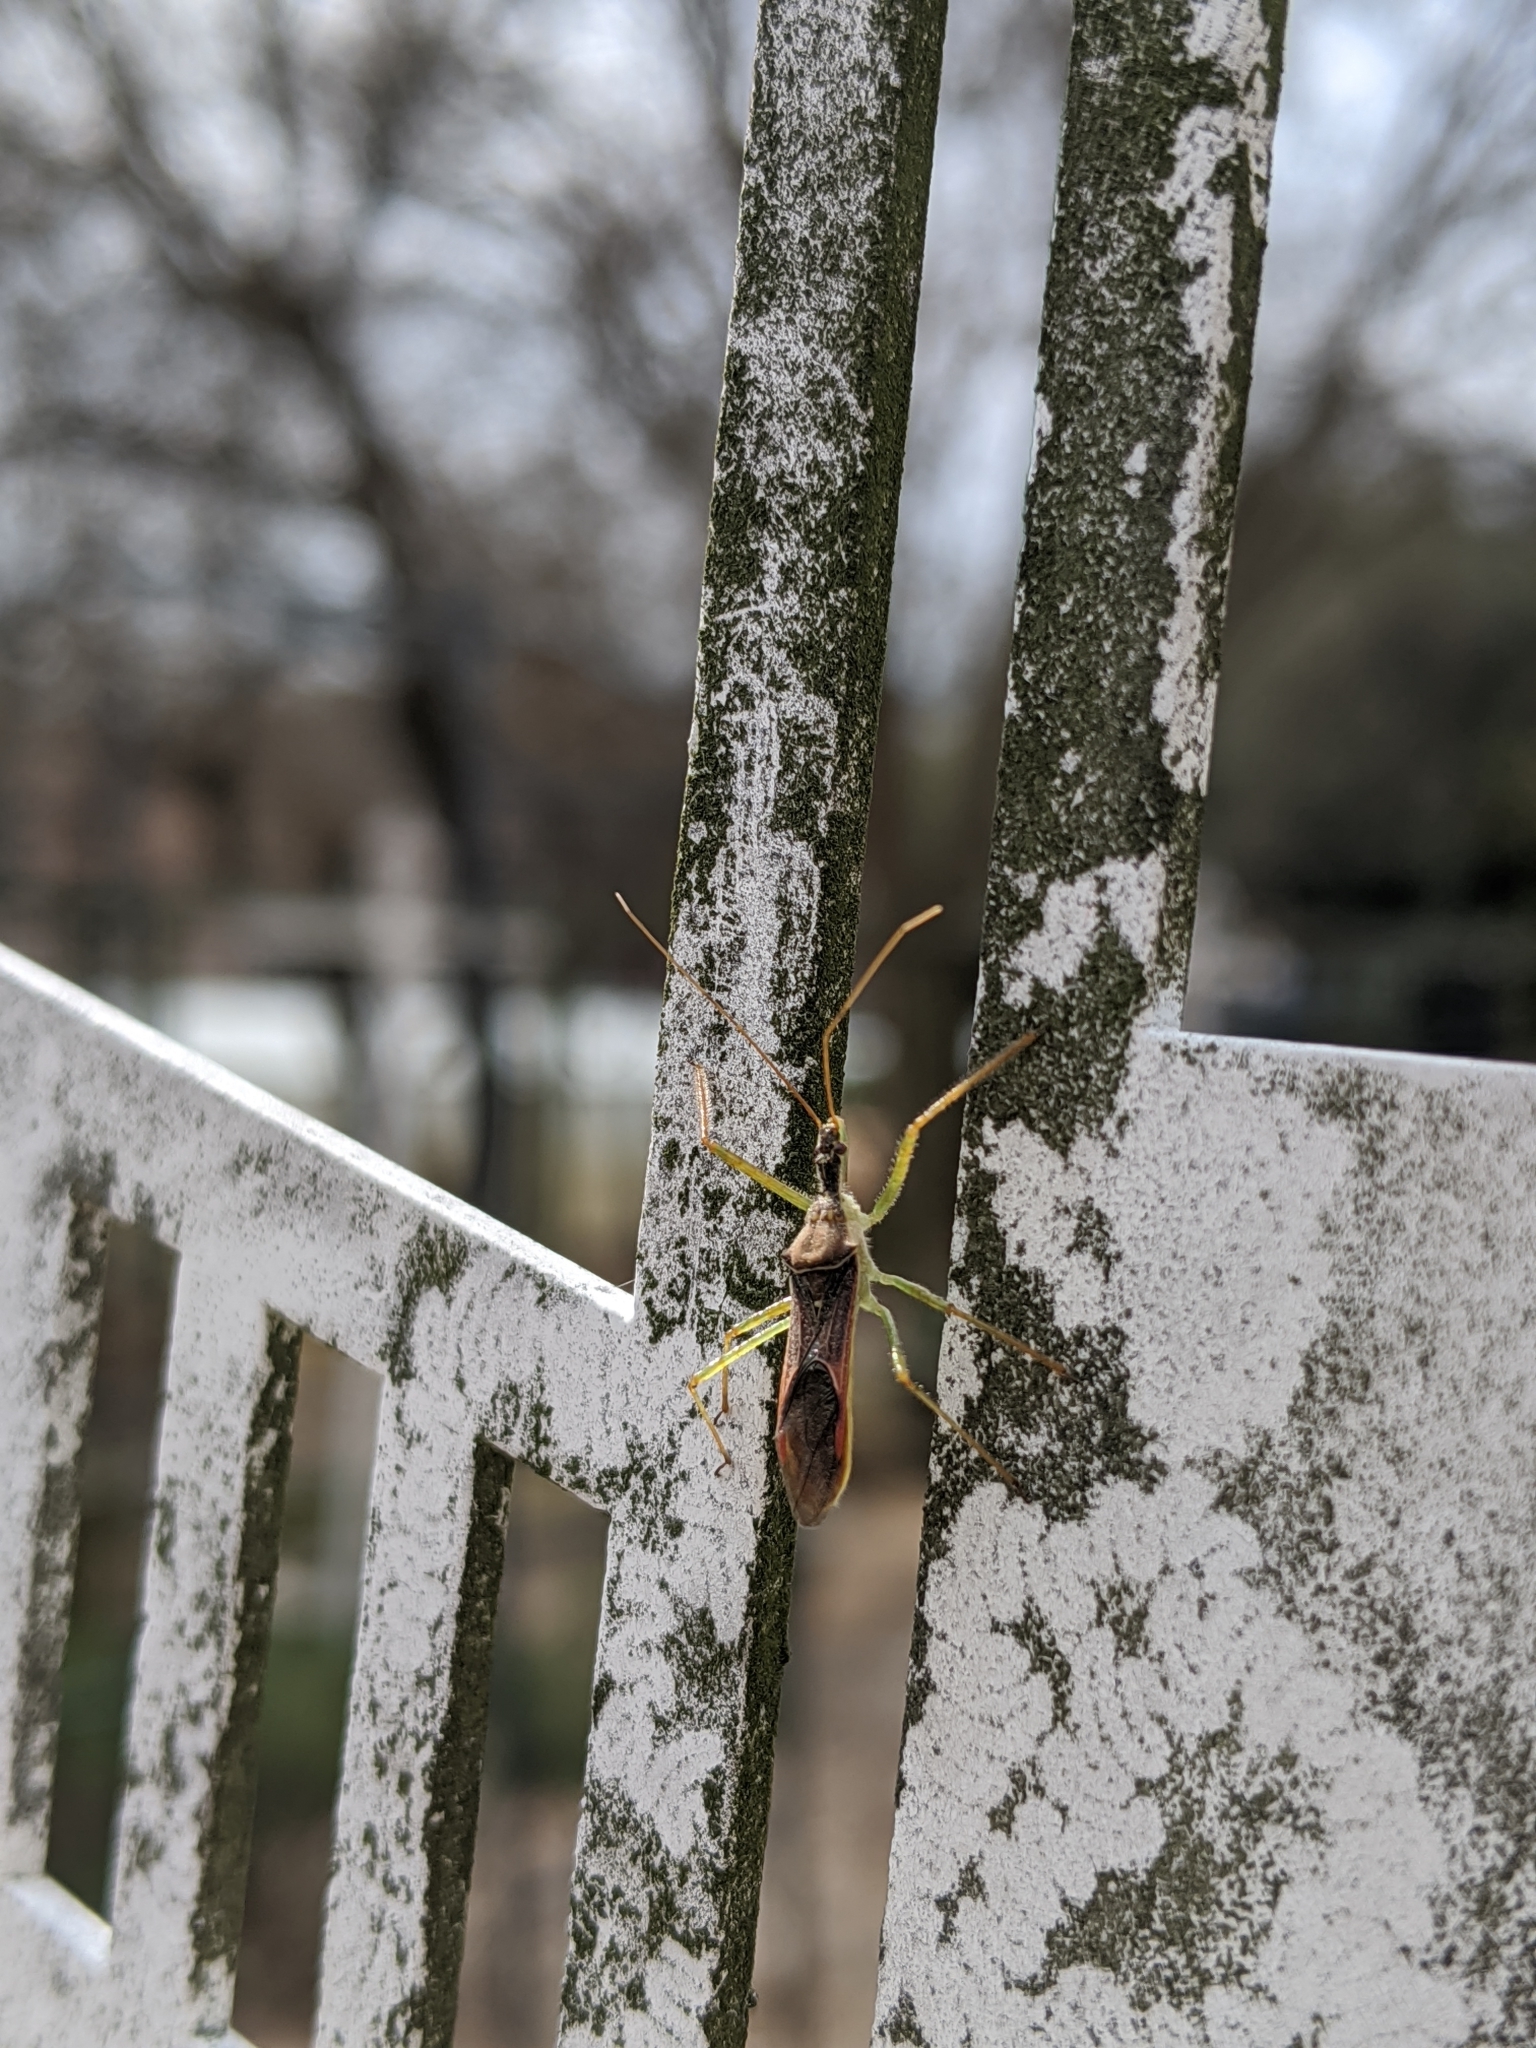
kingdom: Animalia
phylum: Arthropoda
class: Insecta
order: Hemiptera
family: Reduviidae
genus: Zelus
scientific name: Zelus renardii
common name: Assassin bug
